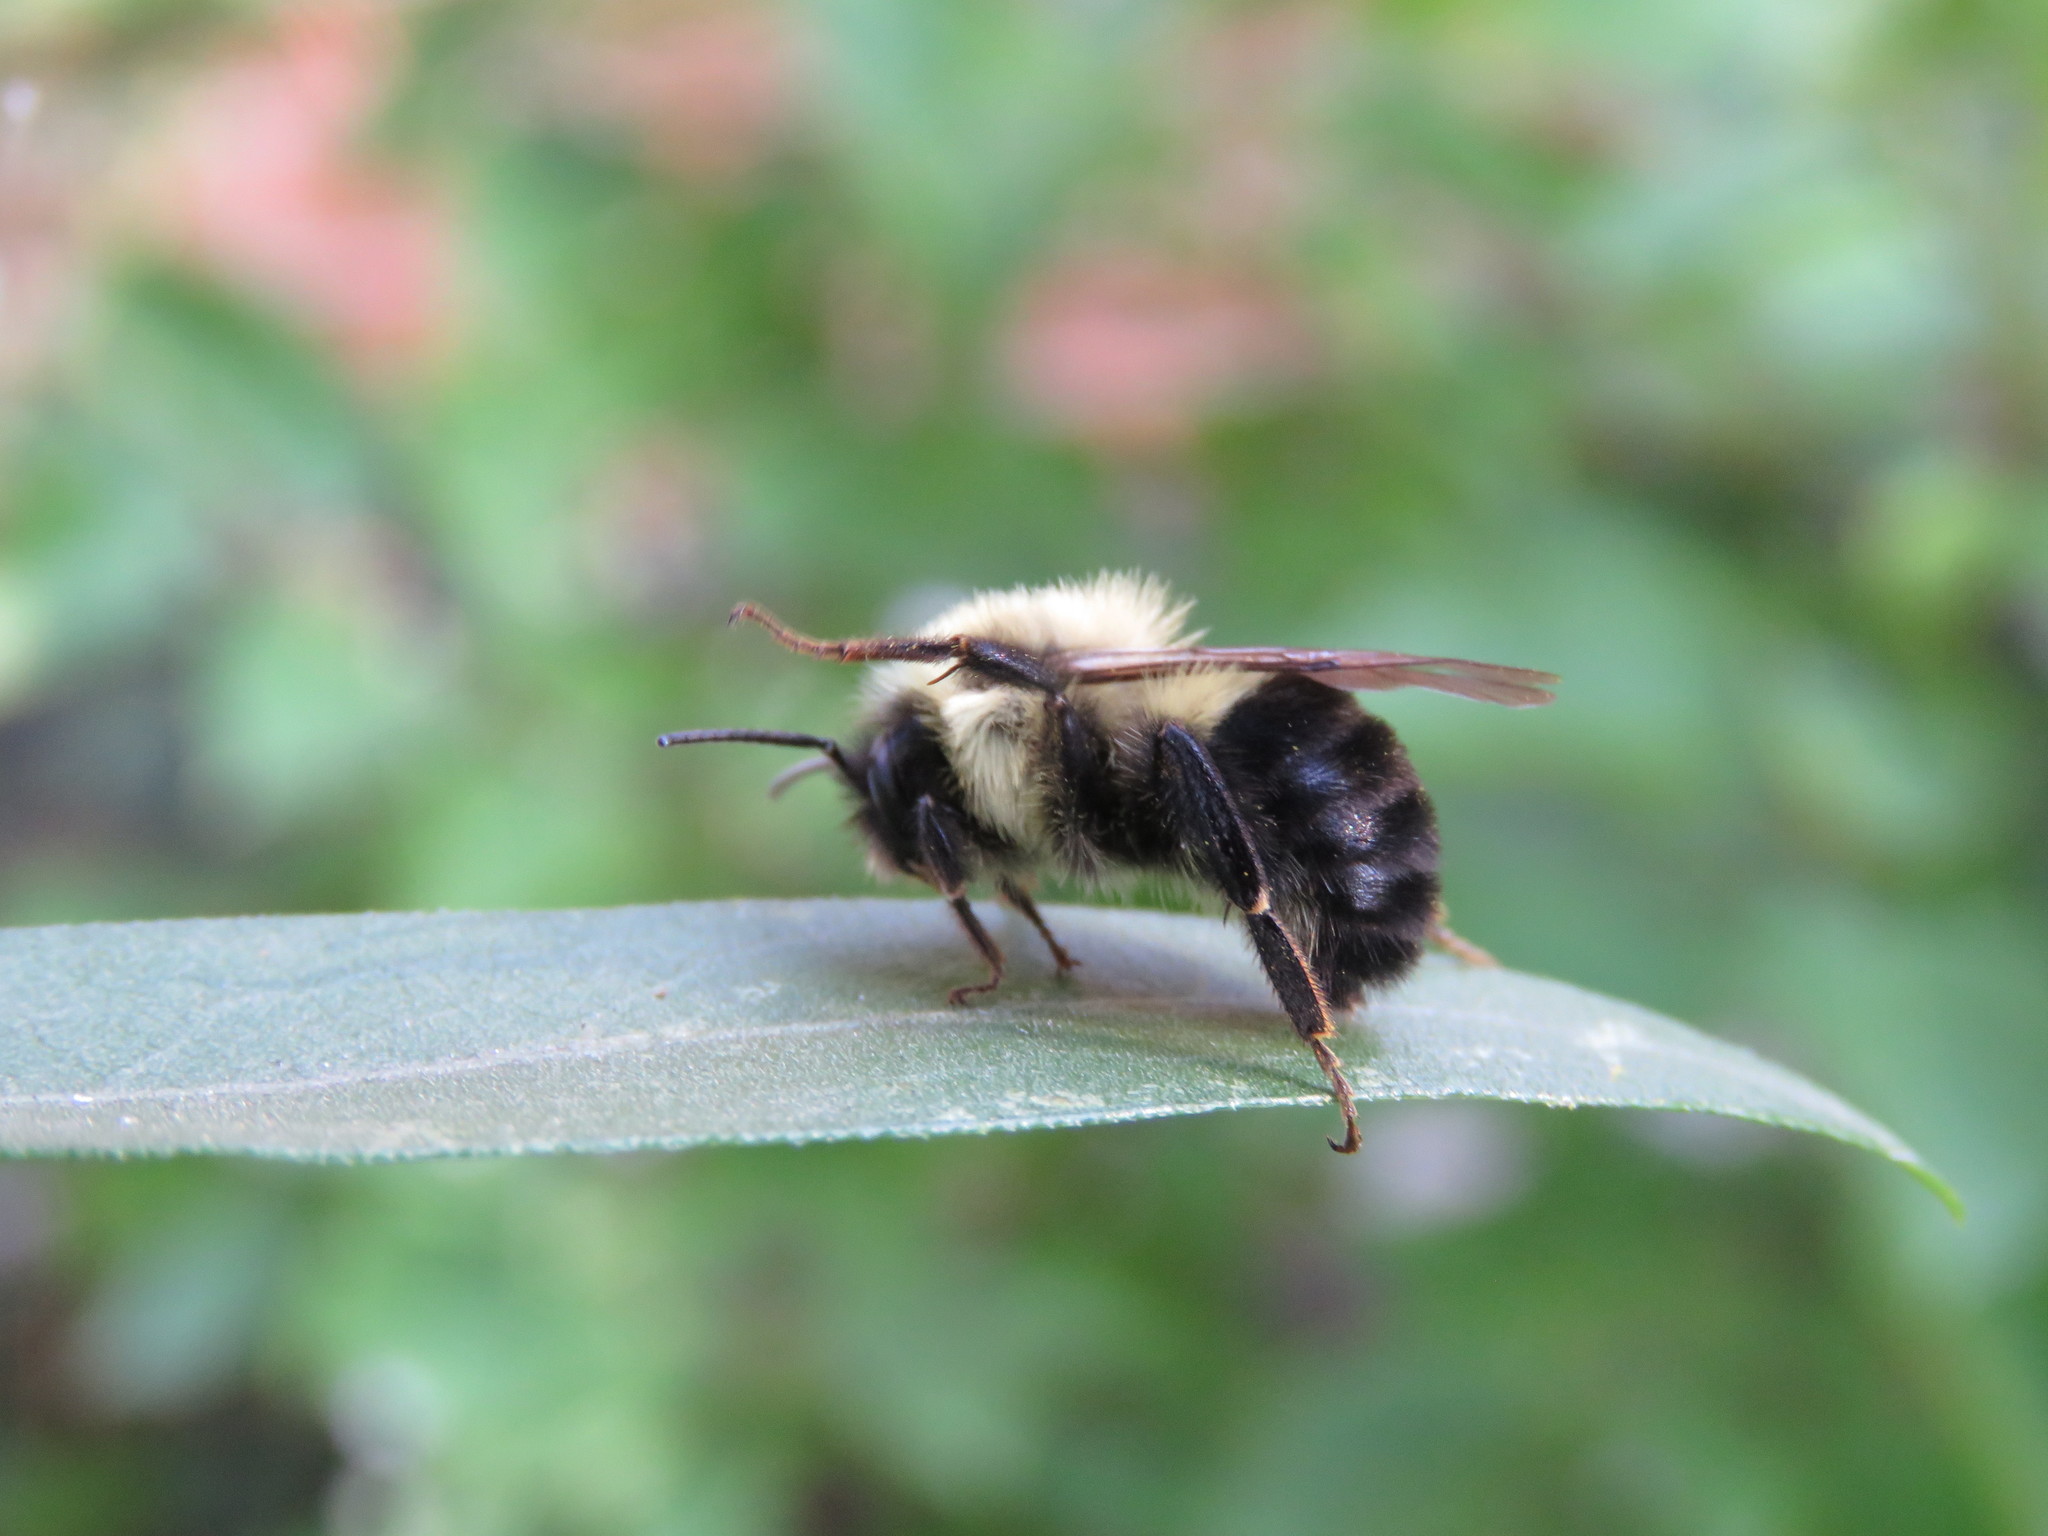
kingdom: Animalia
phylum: Arthropoda
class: Insecta
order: Hymenoptera
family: Apidae
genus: Bombus
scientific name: Bombus impatiens
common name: Common eastern bumble bee
